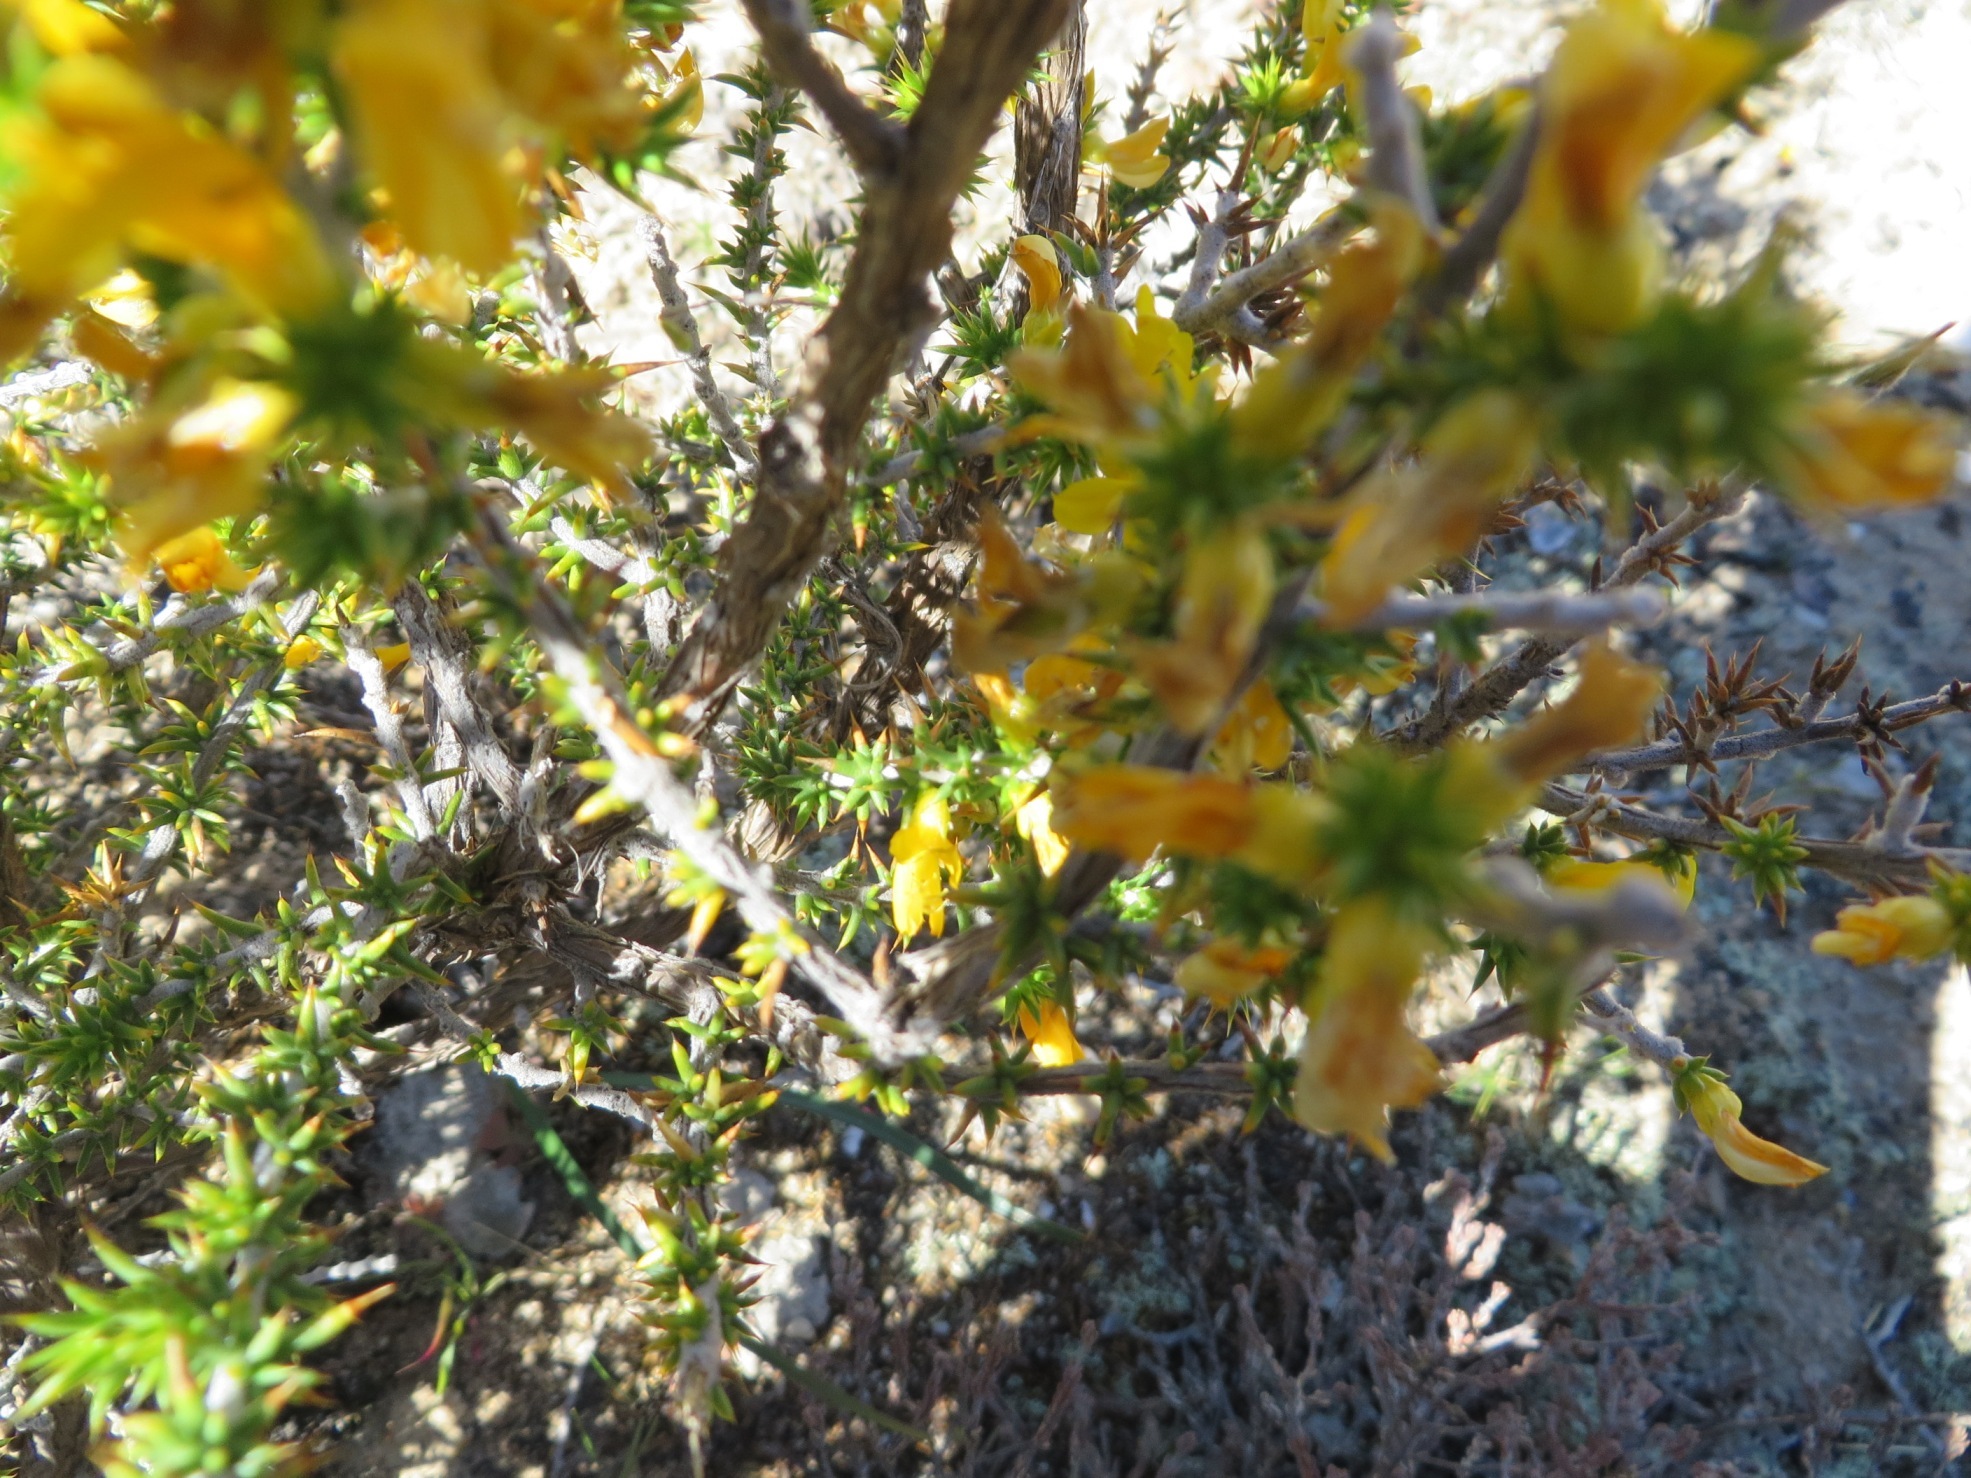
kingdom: Plantae
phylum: Tracheophyta
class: Magnoliopsida
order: Fabales
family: Fabaceae
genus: Aspalathus
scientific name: Aspalathus spiculata
